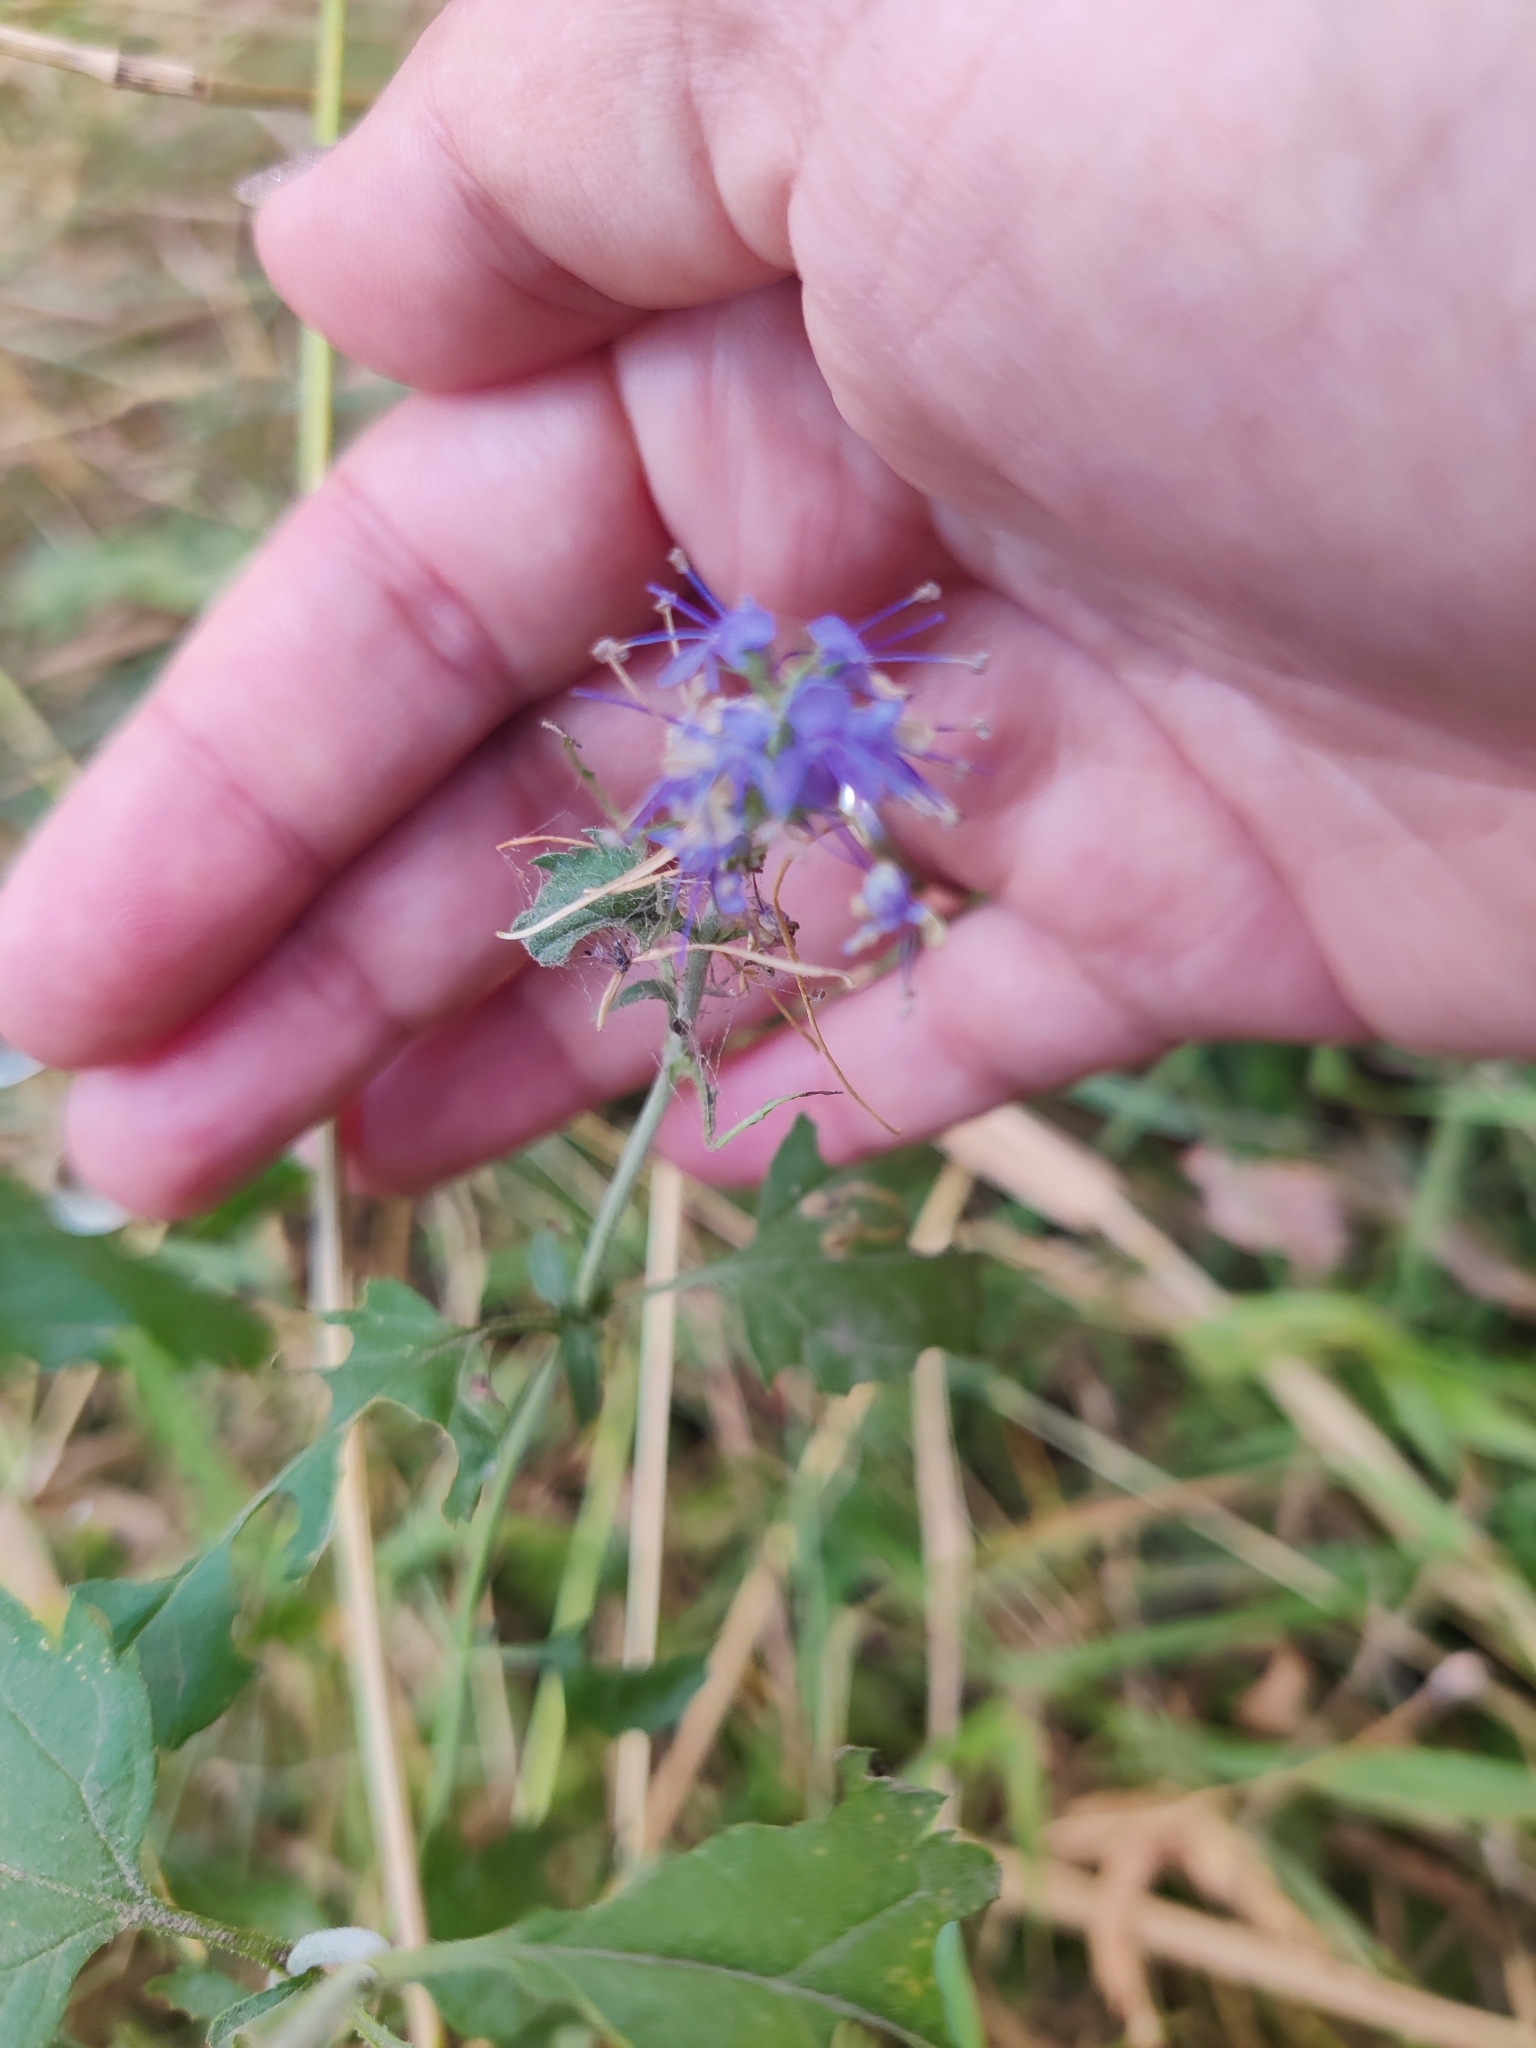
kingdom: Plantae
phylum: Tracheophyta
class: Magnoliopsida
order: Lamiales
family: Plantaginaceae
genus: Veronica
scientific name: Veronica longifolia
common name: Garden speedwell
